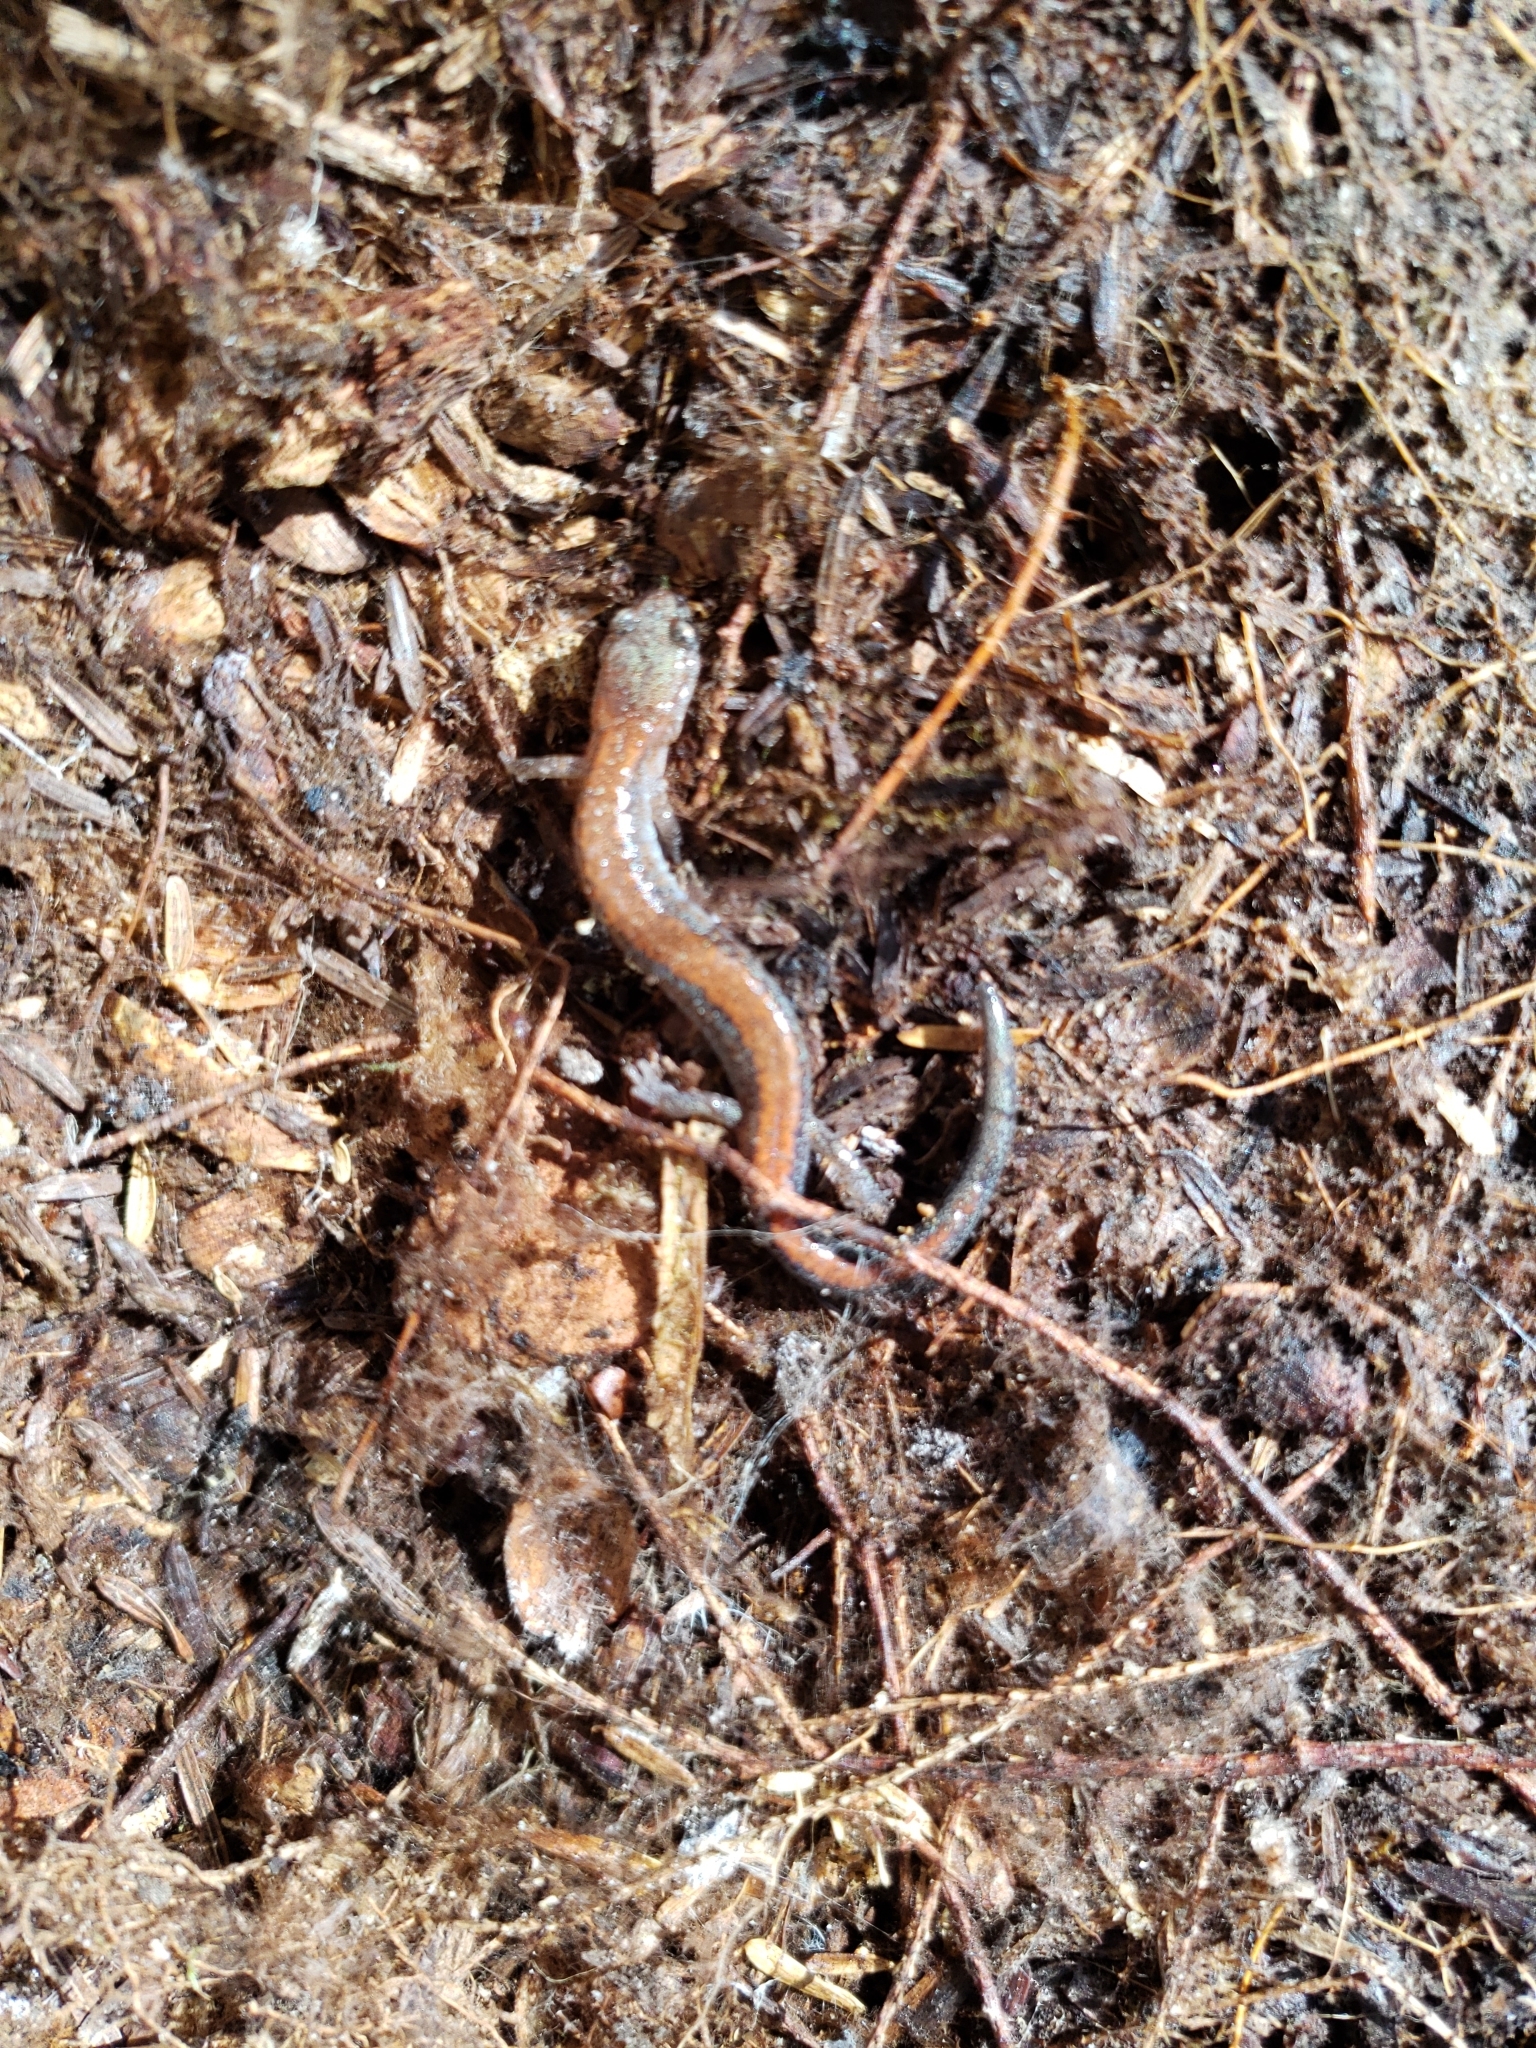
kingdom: Animalia
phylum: Chordata
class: Amphibia
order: Caudata
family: Plethodontidae
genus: Plethodon
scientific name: Plethodon cinereus
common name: Redback salamander
